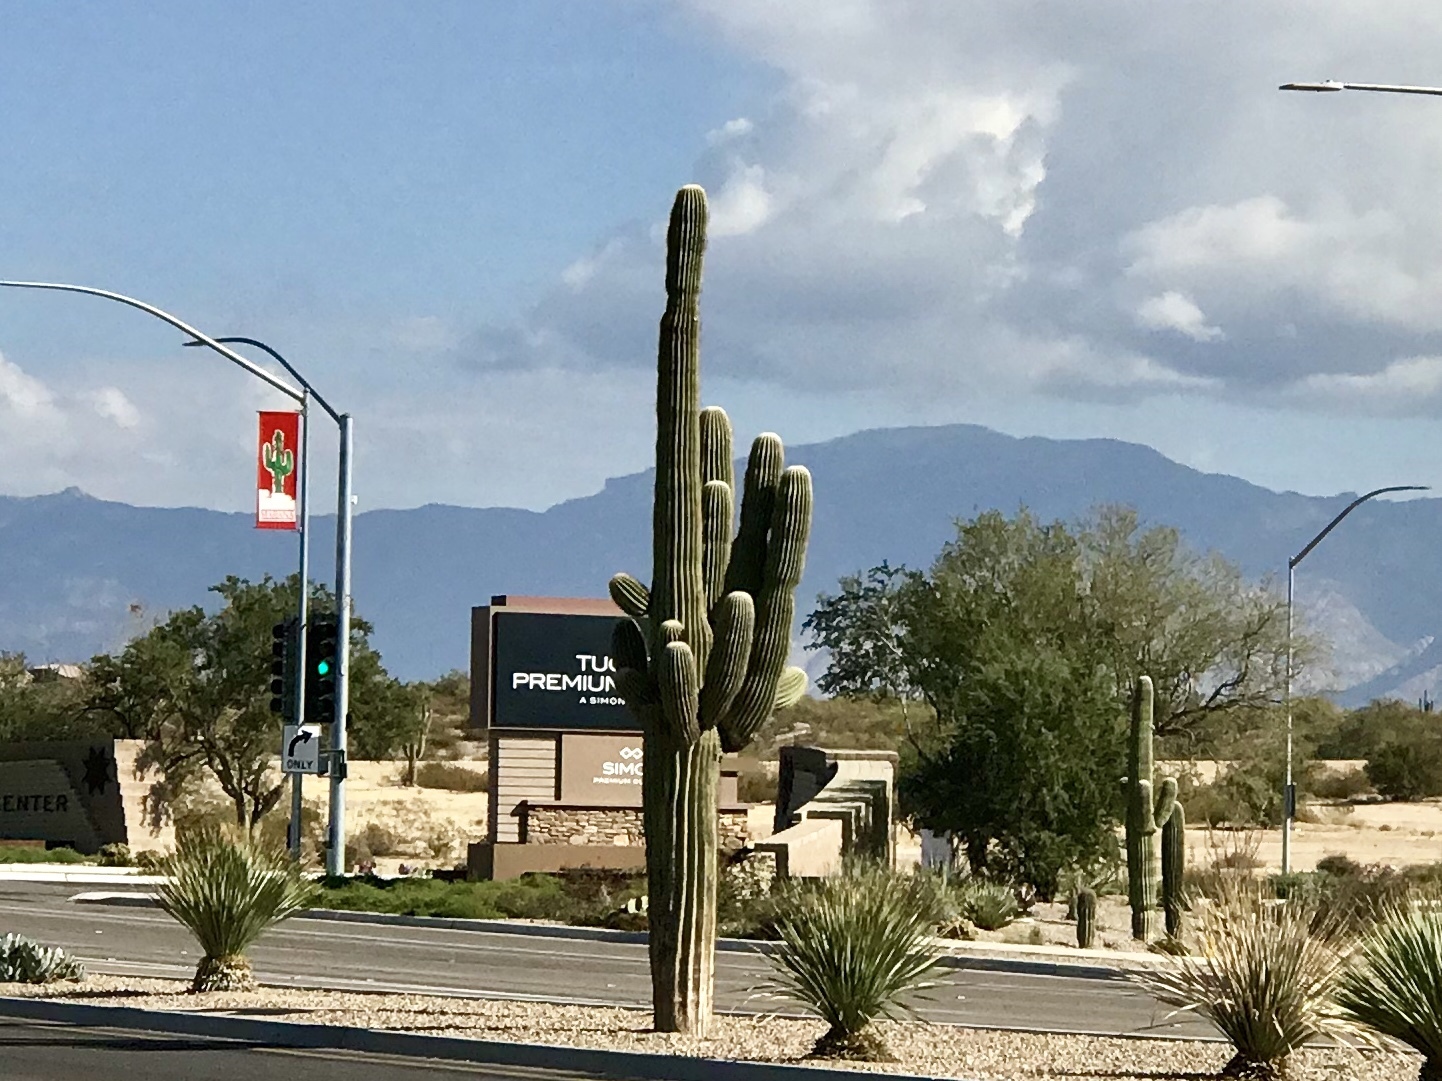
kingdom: Plantae
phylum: Tracheophyta
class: Magnoliopsida
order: Caryophyllales
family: Cactaceae
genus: Carnegiea
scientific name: Carnegiea gigantea
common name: Saguaro
